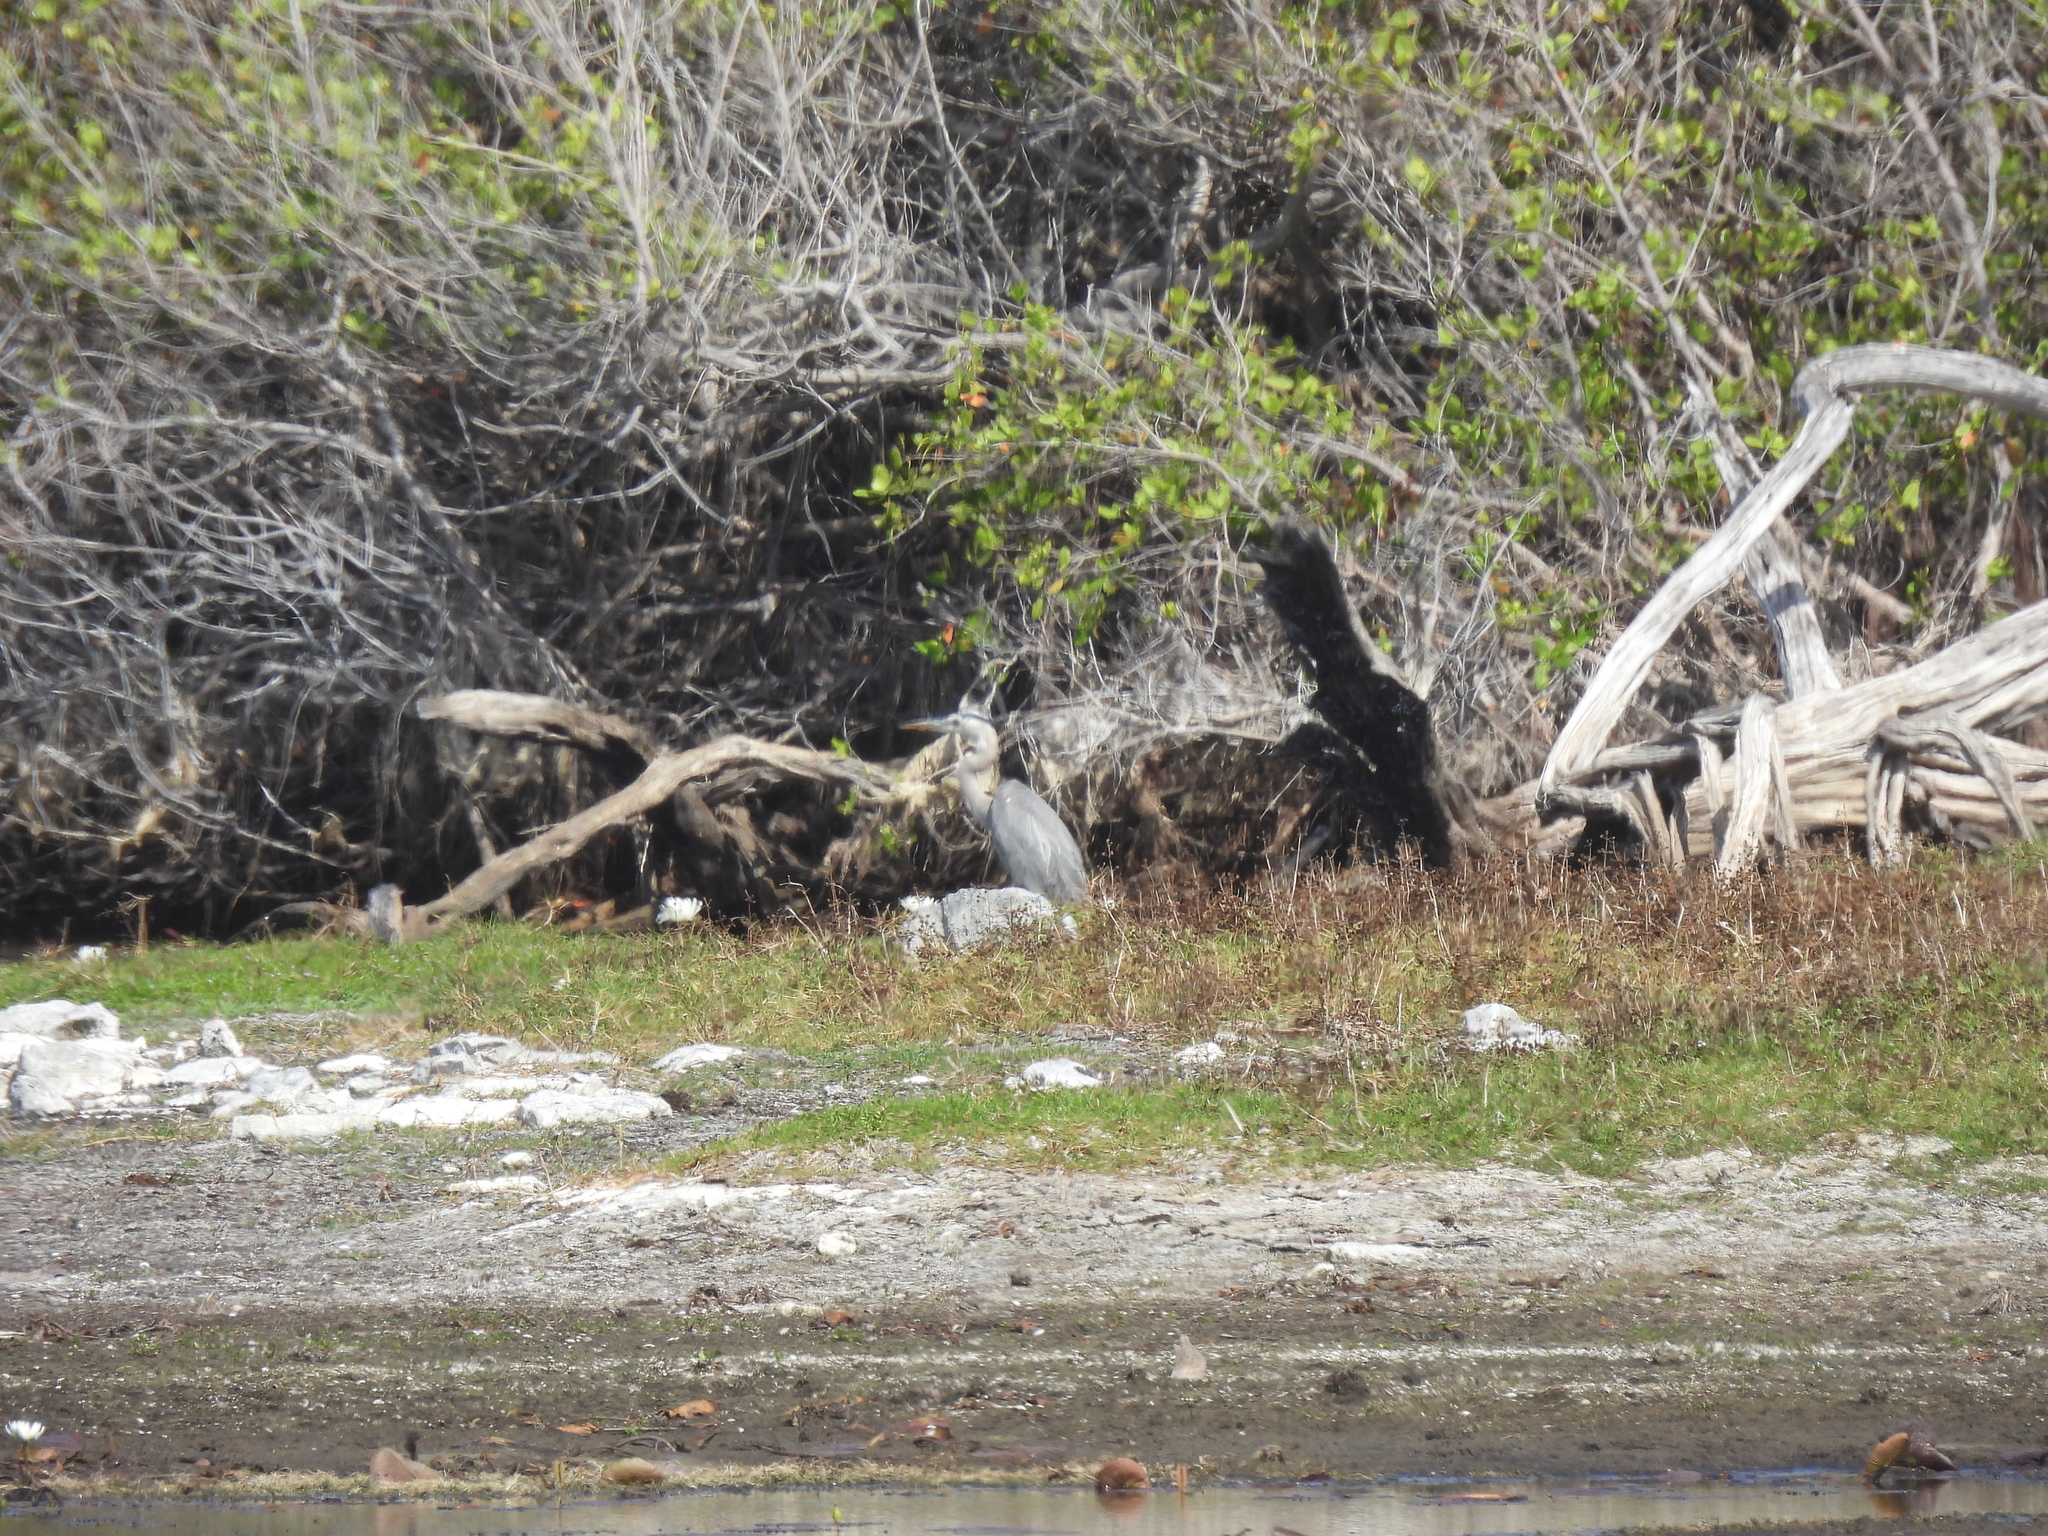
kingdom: Animalia
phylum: Chordata
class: Aves
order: Pelecaniformes
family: Ardeidae
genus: Ardea
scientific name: Ardea herodias
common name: Great blue heron
